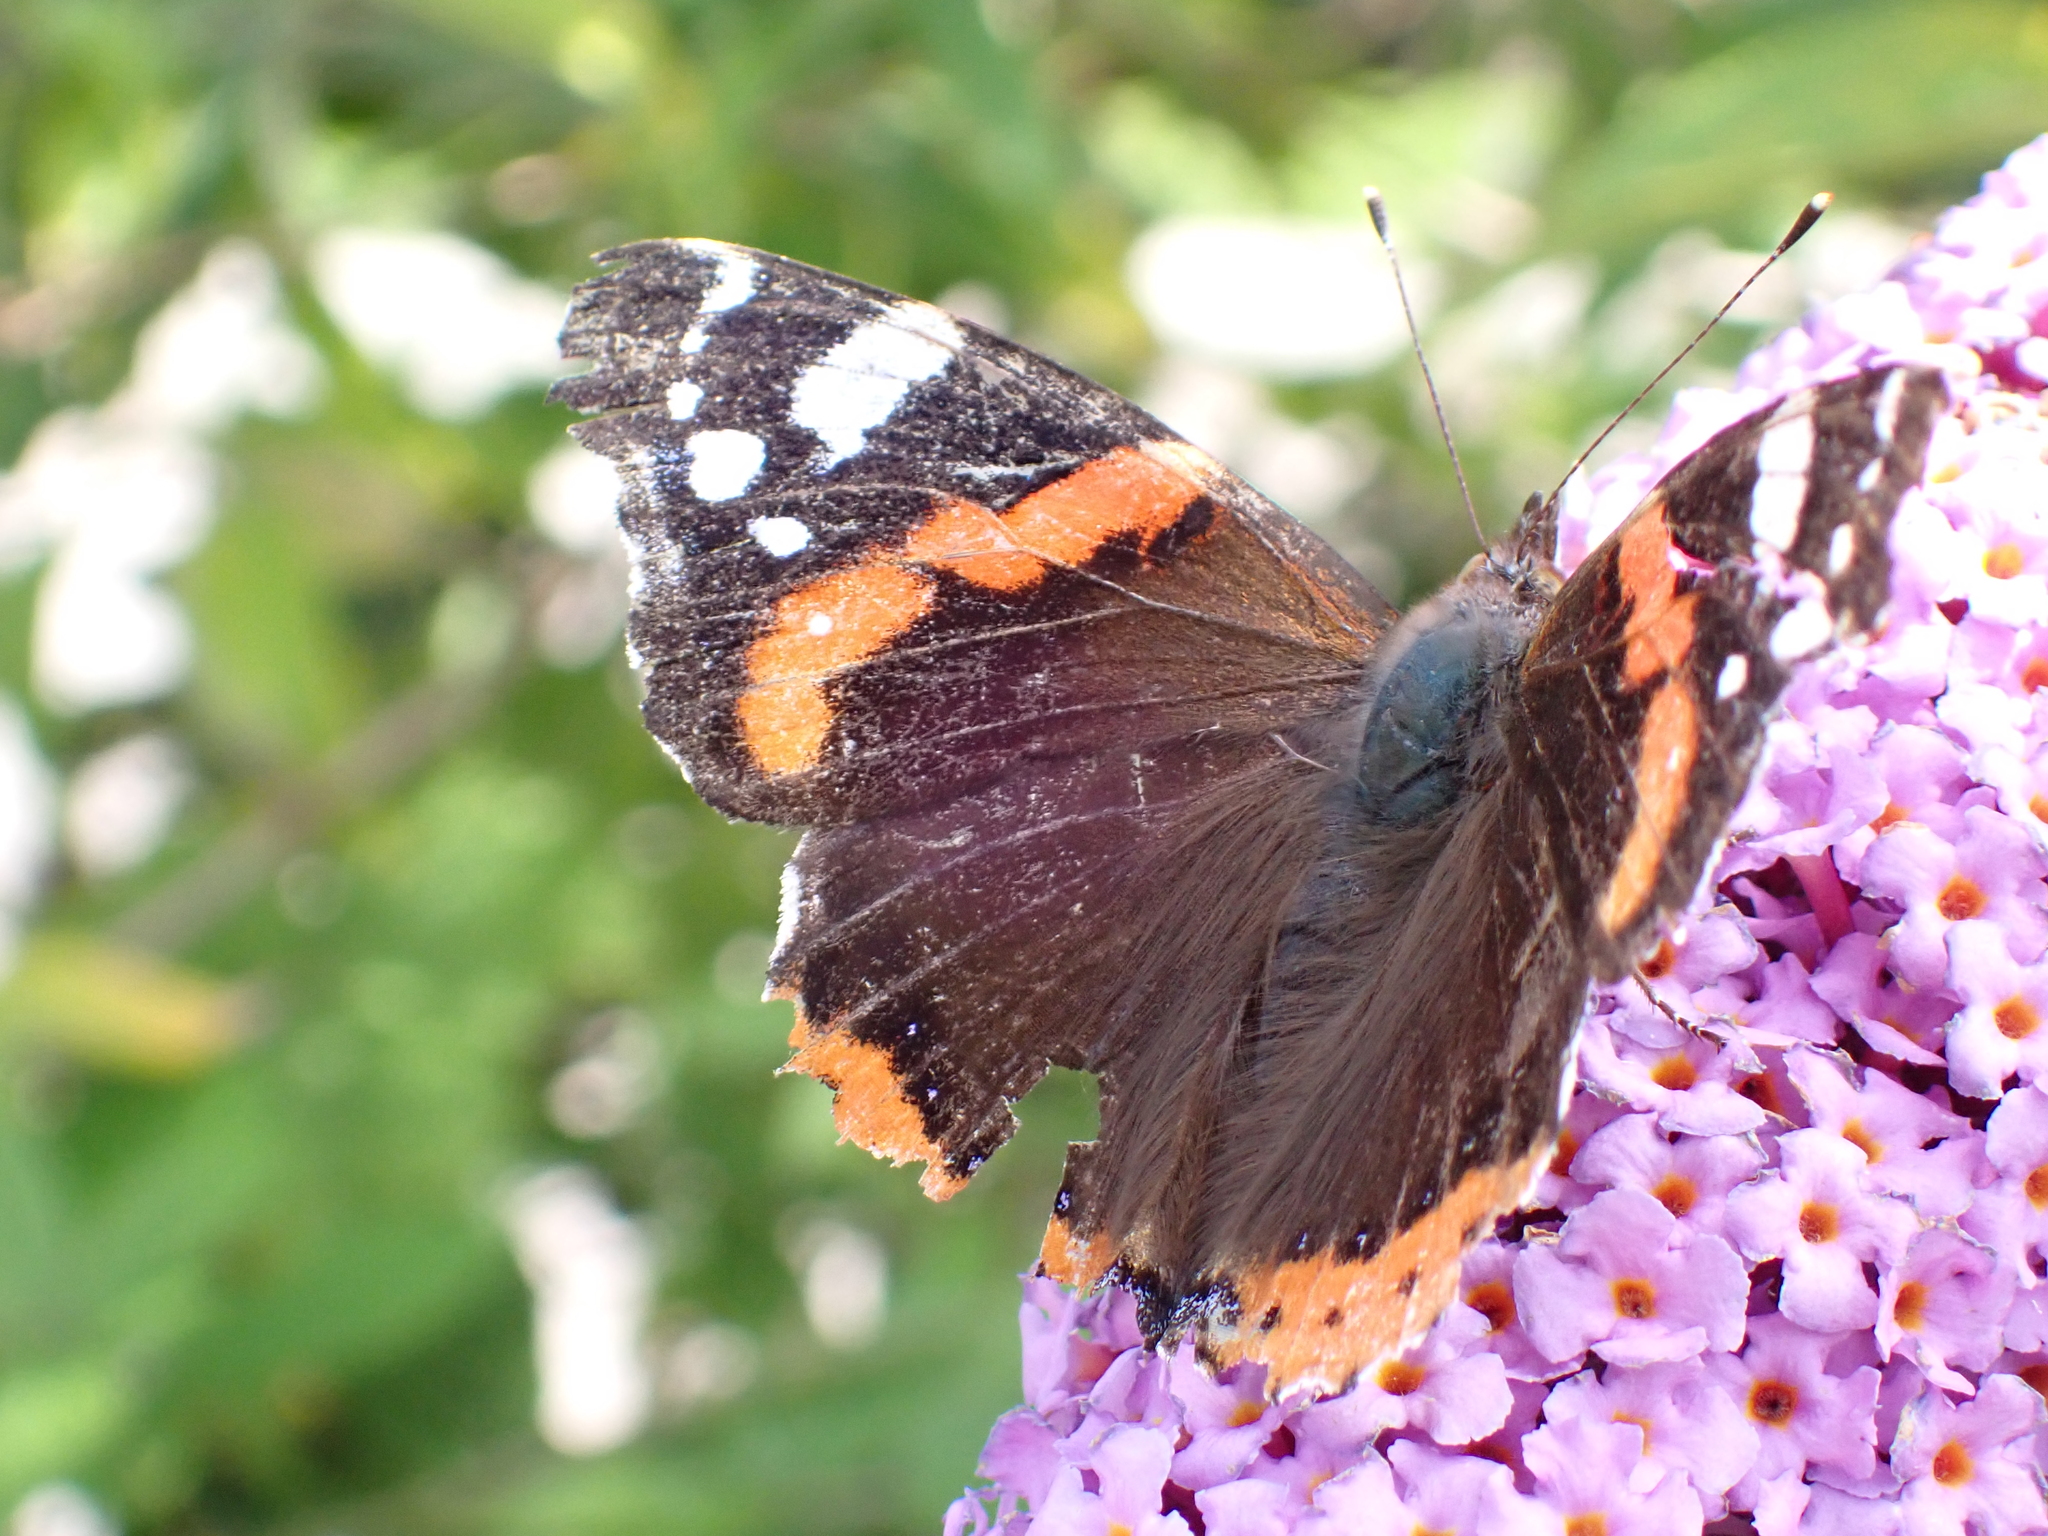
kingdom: Animalia
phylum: Arthropoda
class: Insecta
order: Lepidoptera
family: Nymphalidae
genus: Vanessa
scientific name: Vanessa atalanta
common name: Red admiral
